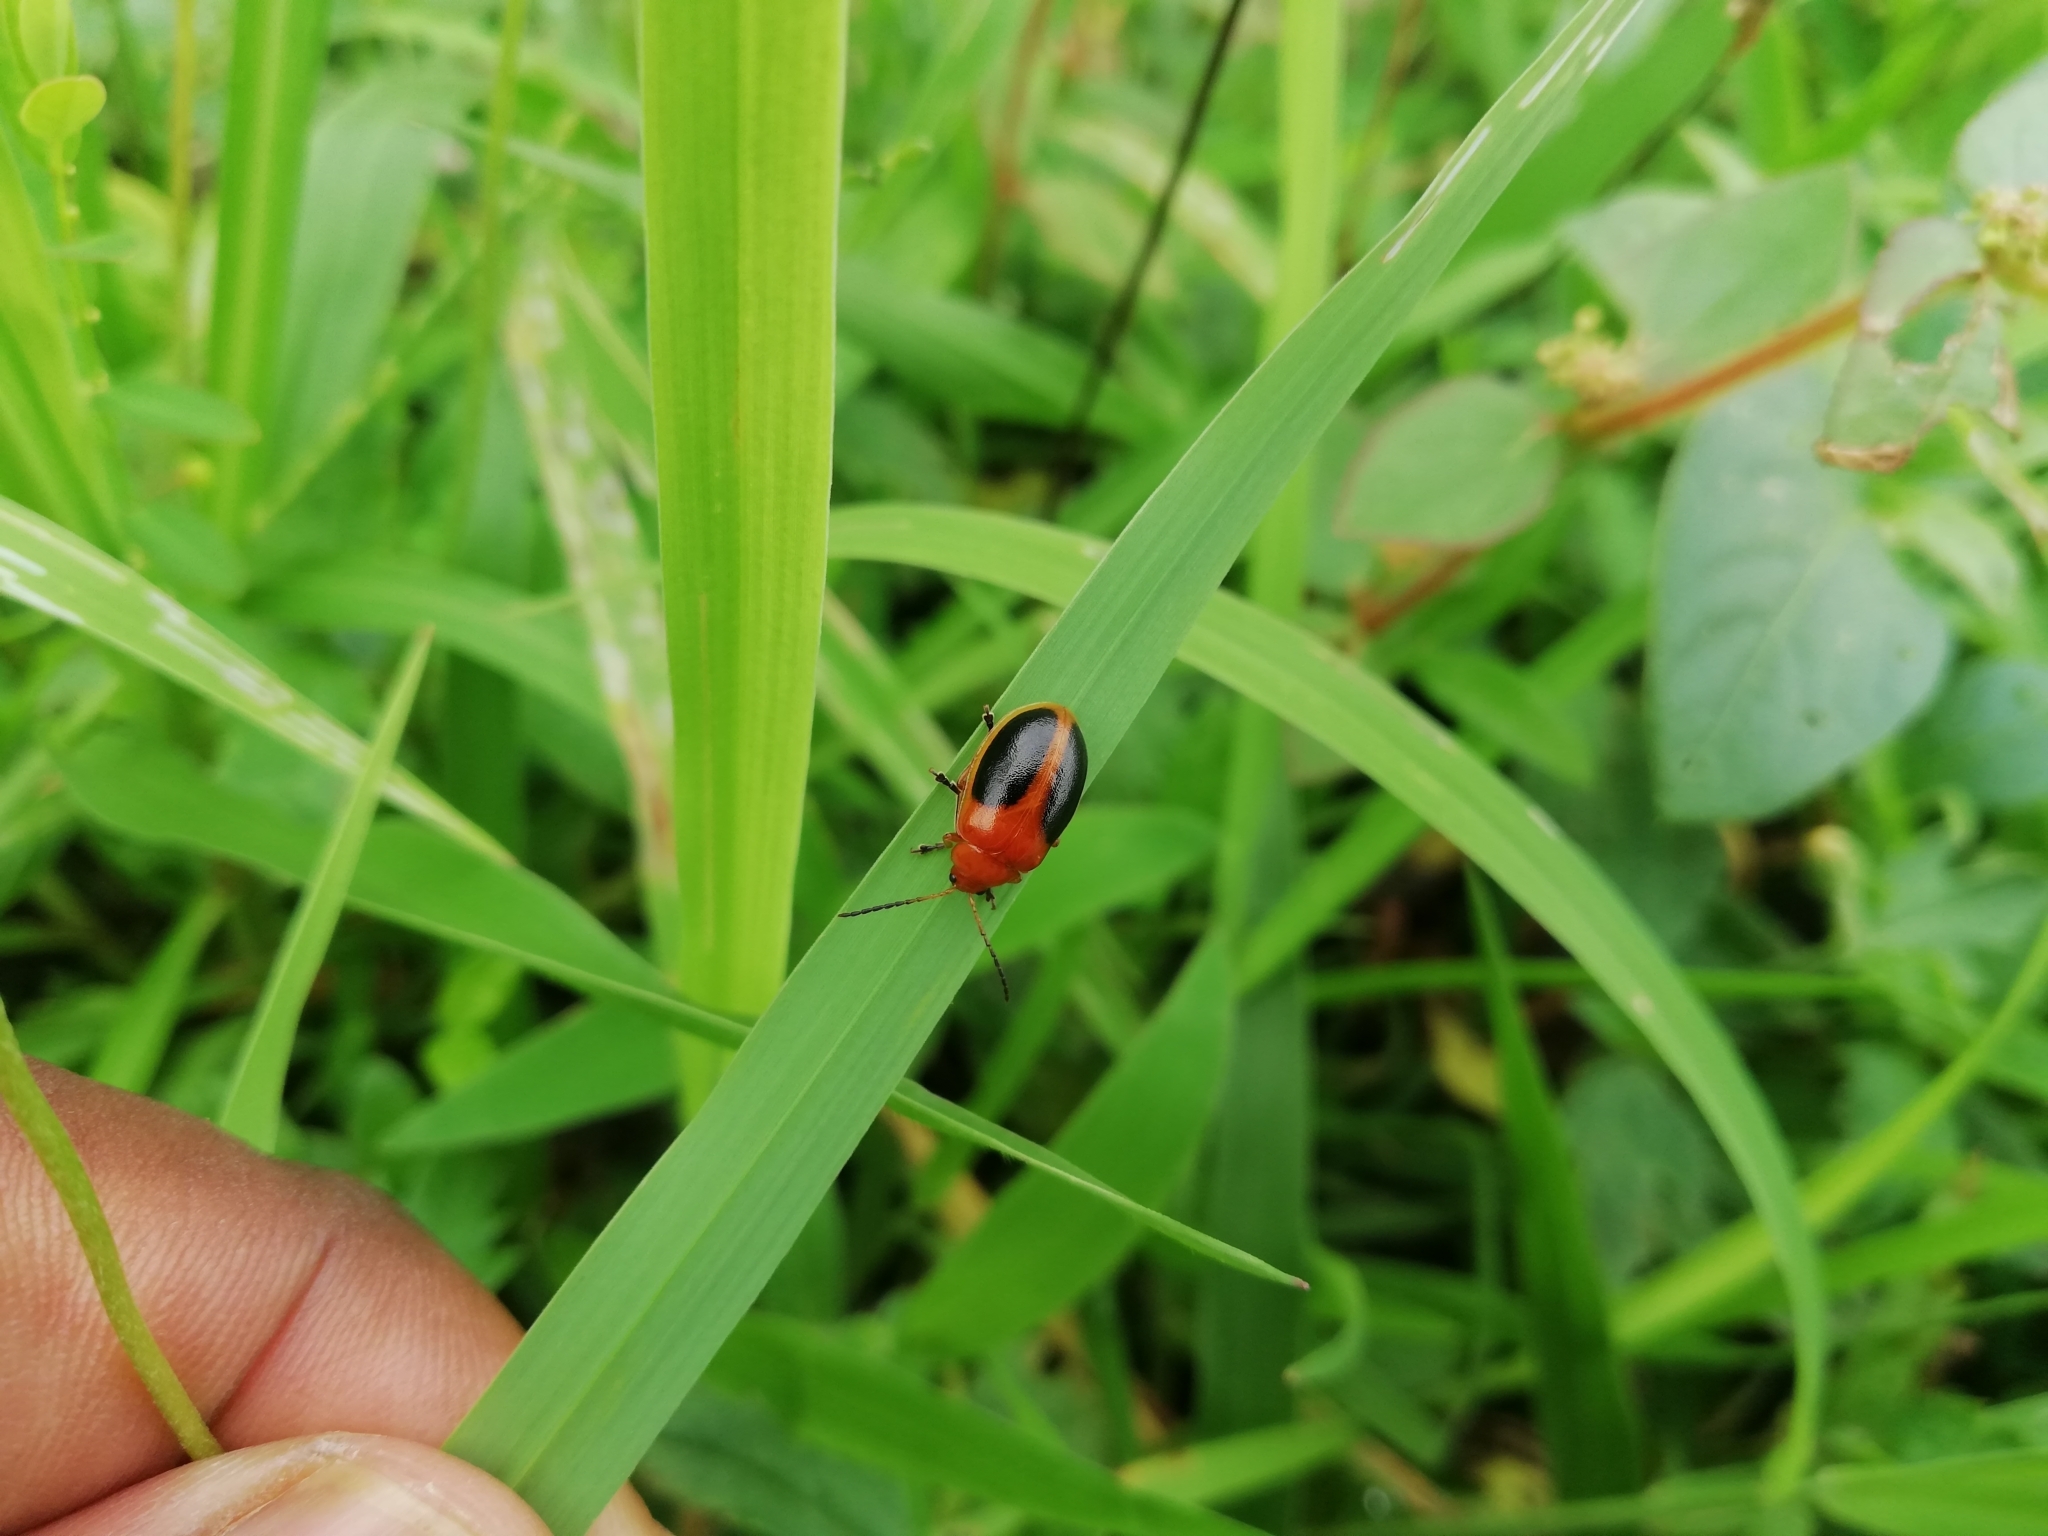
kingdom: Animalia
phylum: Arthropoda
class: Insecta
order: Coleoptera
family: Chrysomelidae
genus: Oides
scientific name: Oides affinis
